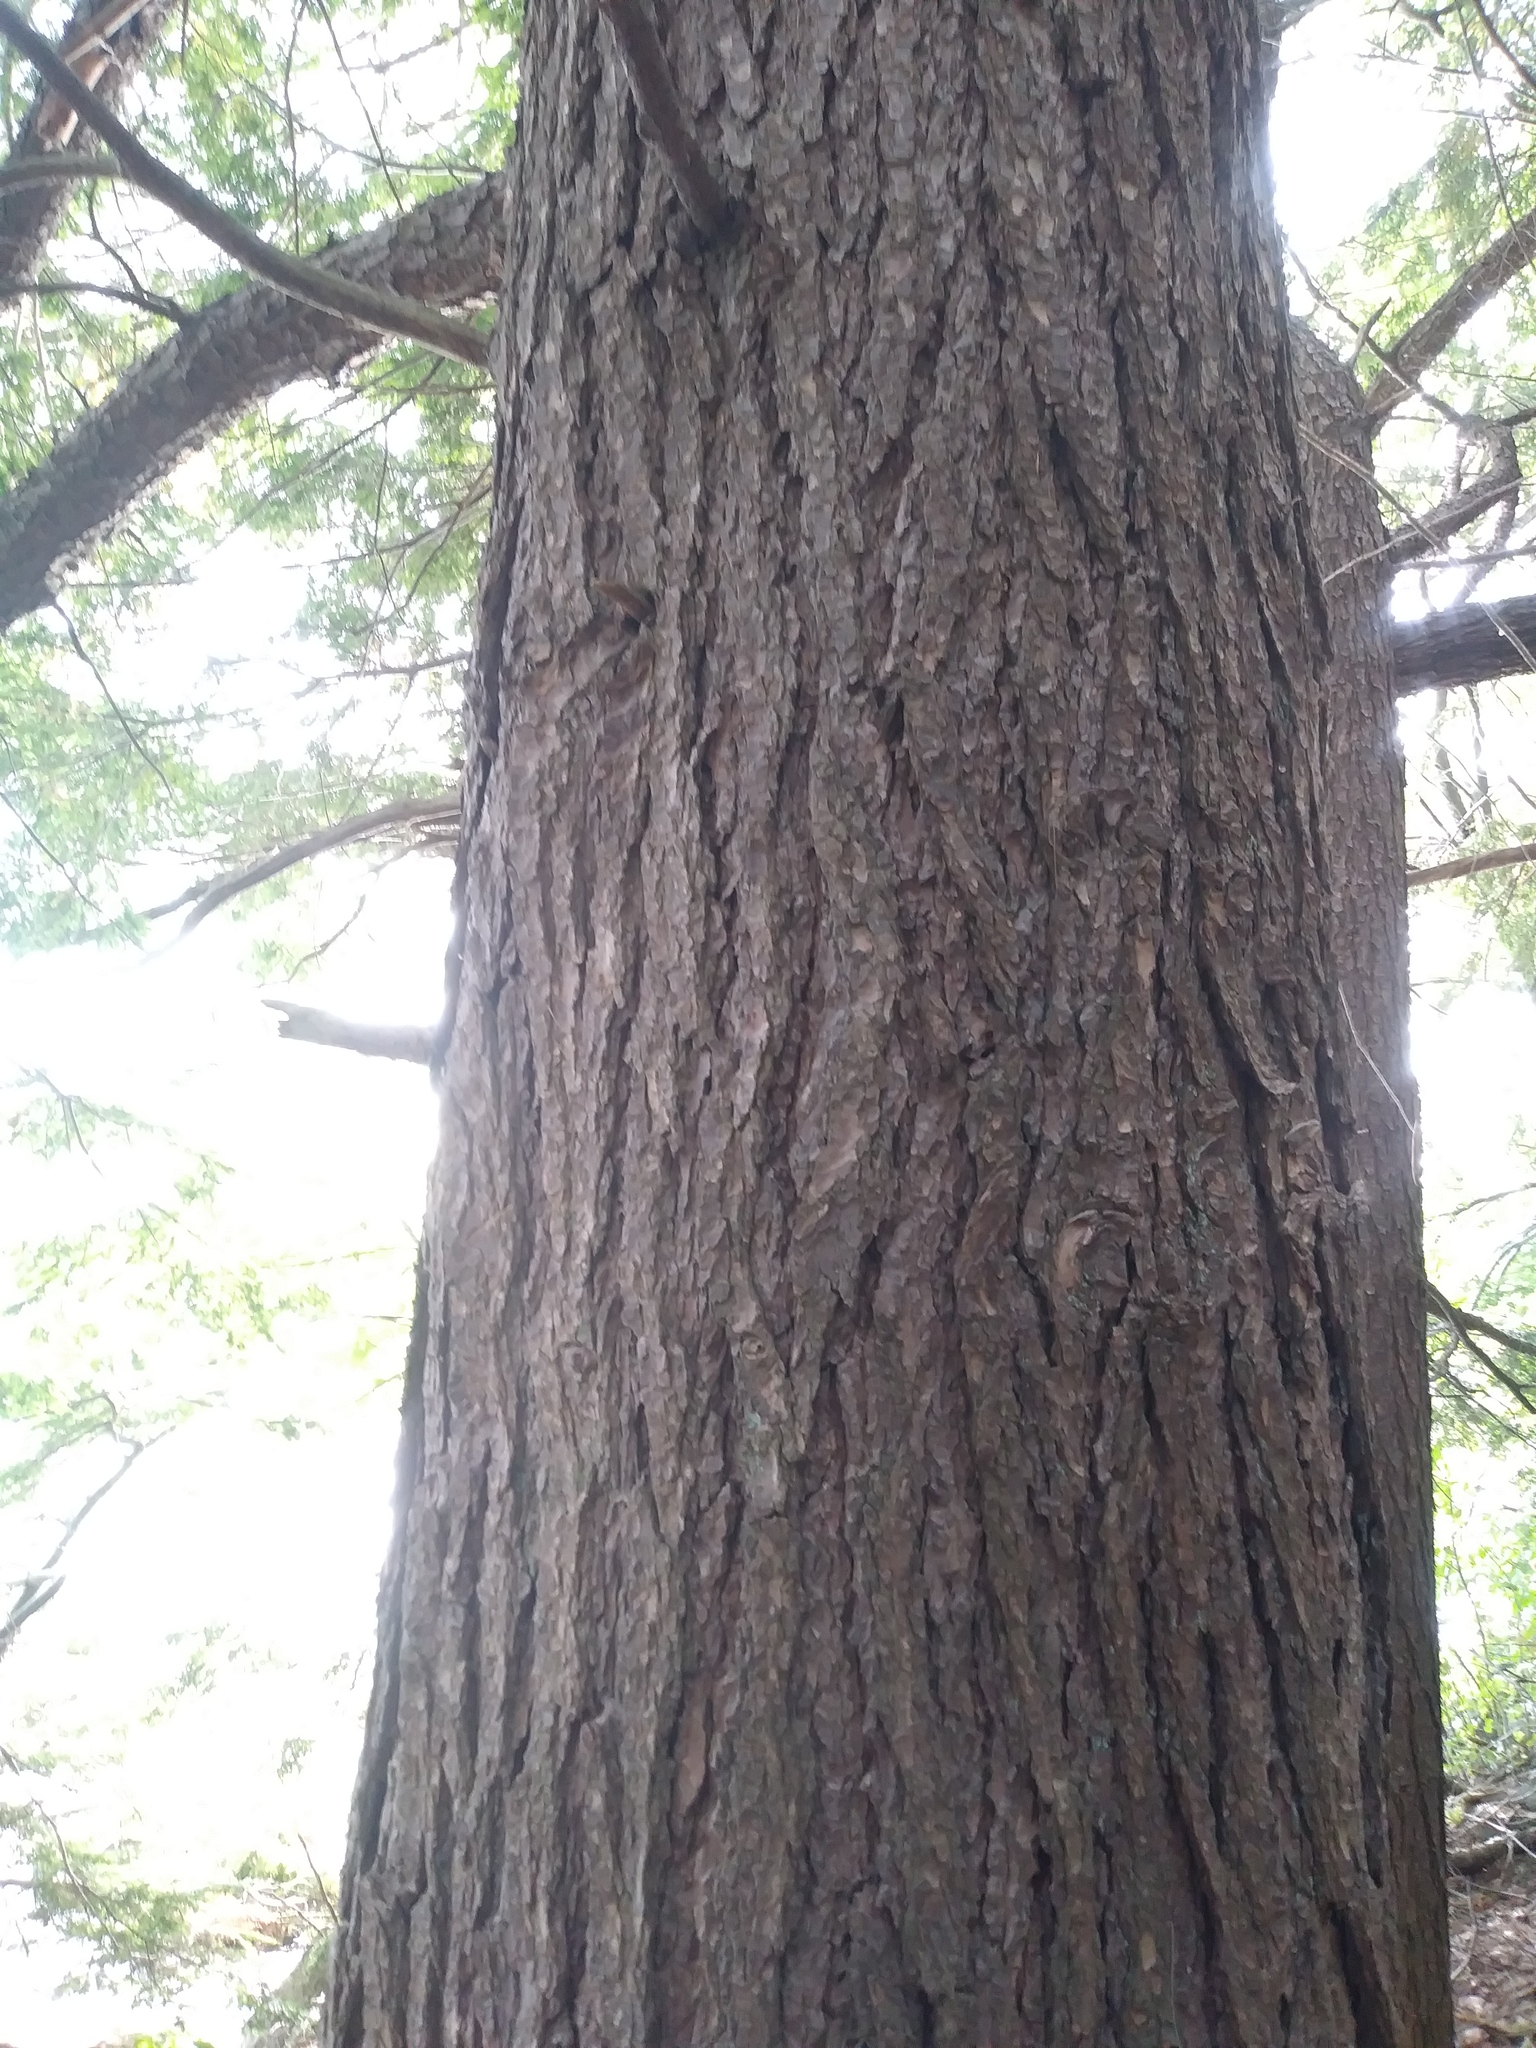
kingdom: Plantae
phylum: Tracheophyta
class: Pinopsida
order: Pinales
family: Pinaceae
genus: Tsuga
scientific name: Tsuga canadensis
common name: Eastern hemlock
